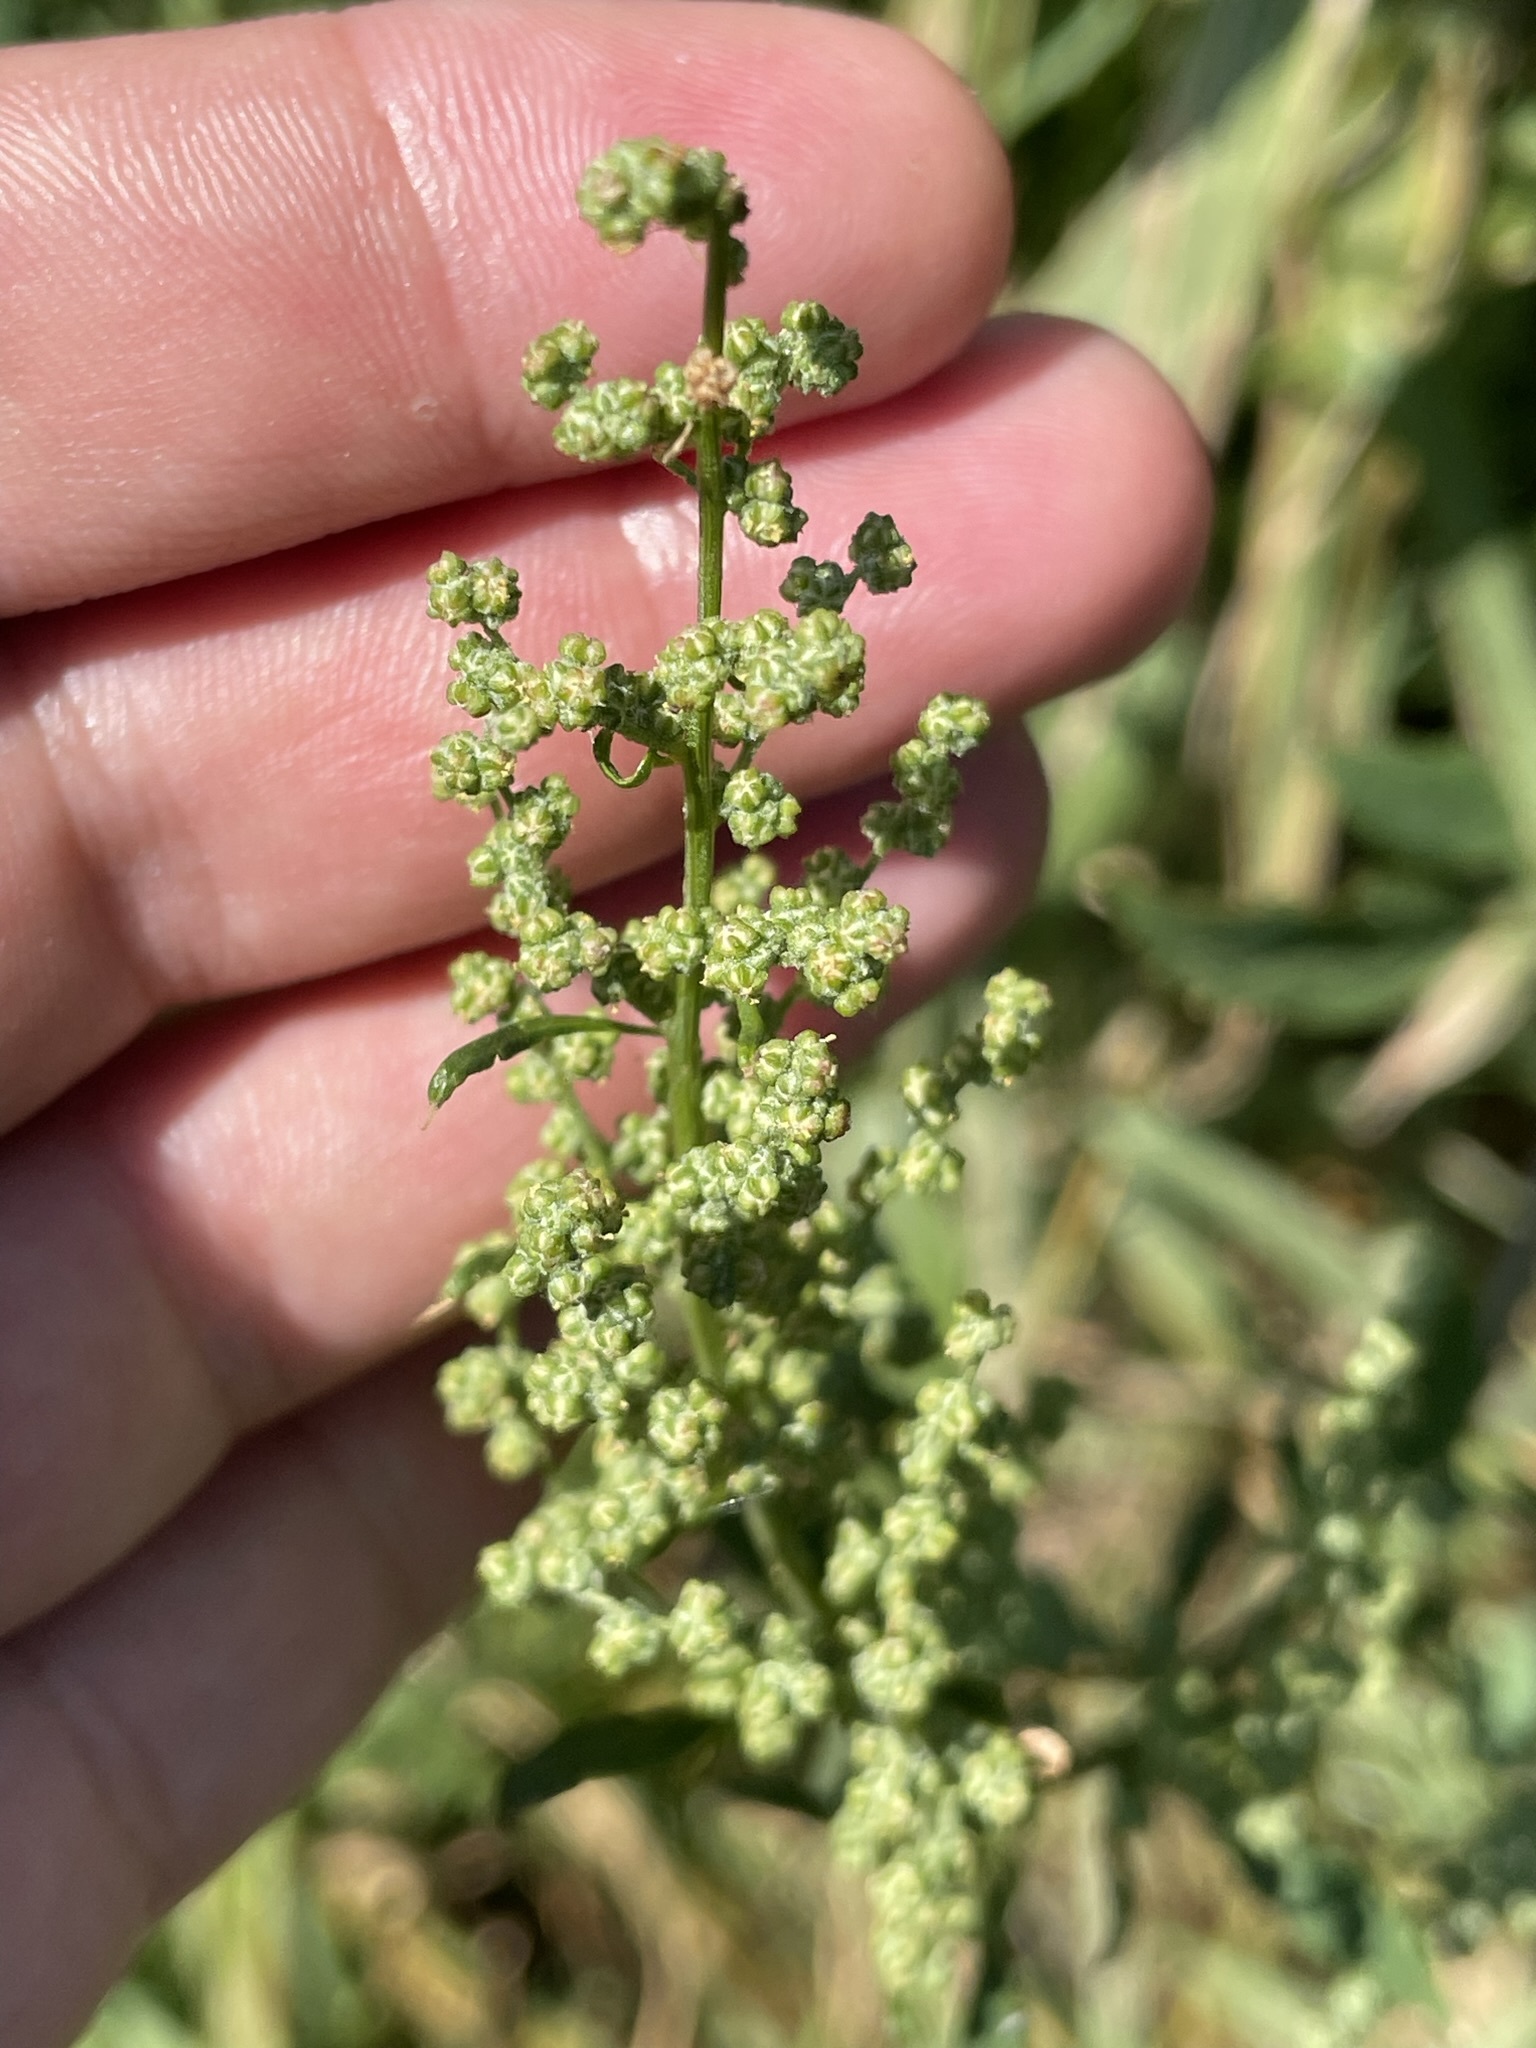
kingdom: Plantae
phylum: Tracheophyta
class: Magnoliopsida
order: Caryophyllales
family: Amaranthaceae
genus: Chenopodium
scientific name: Chenopodium album
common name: Fat-hen
